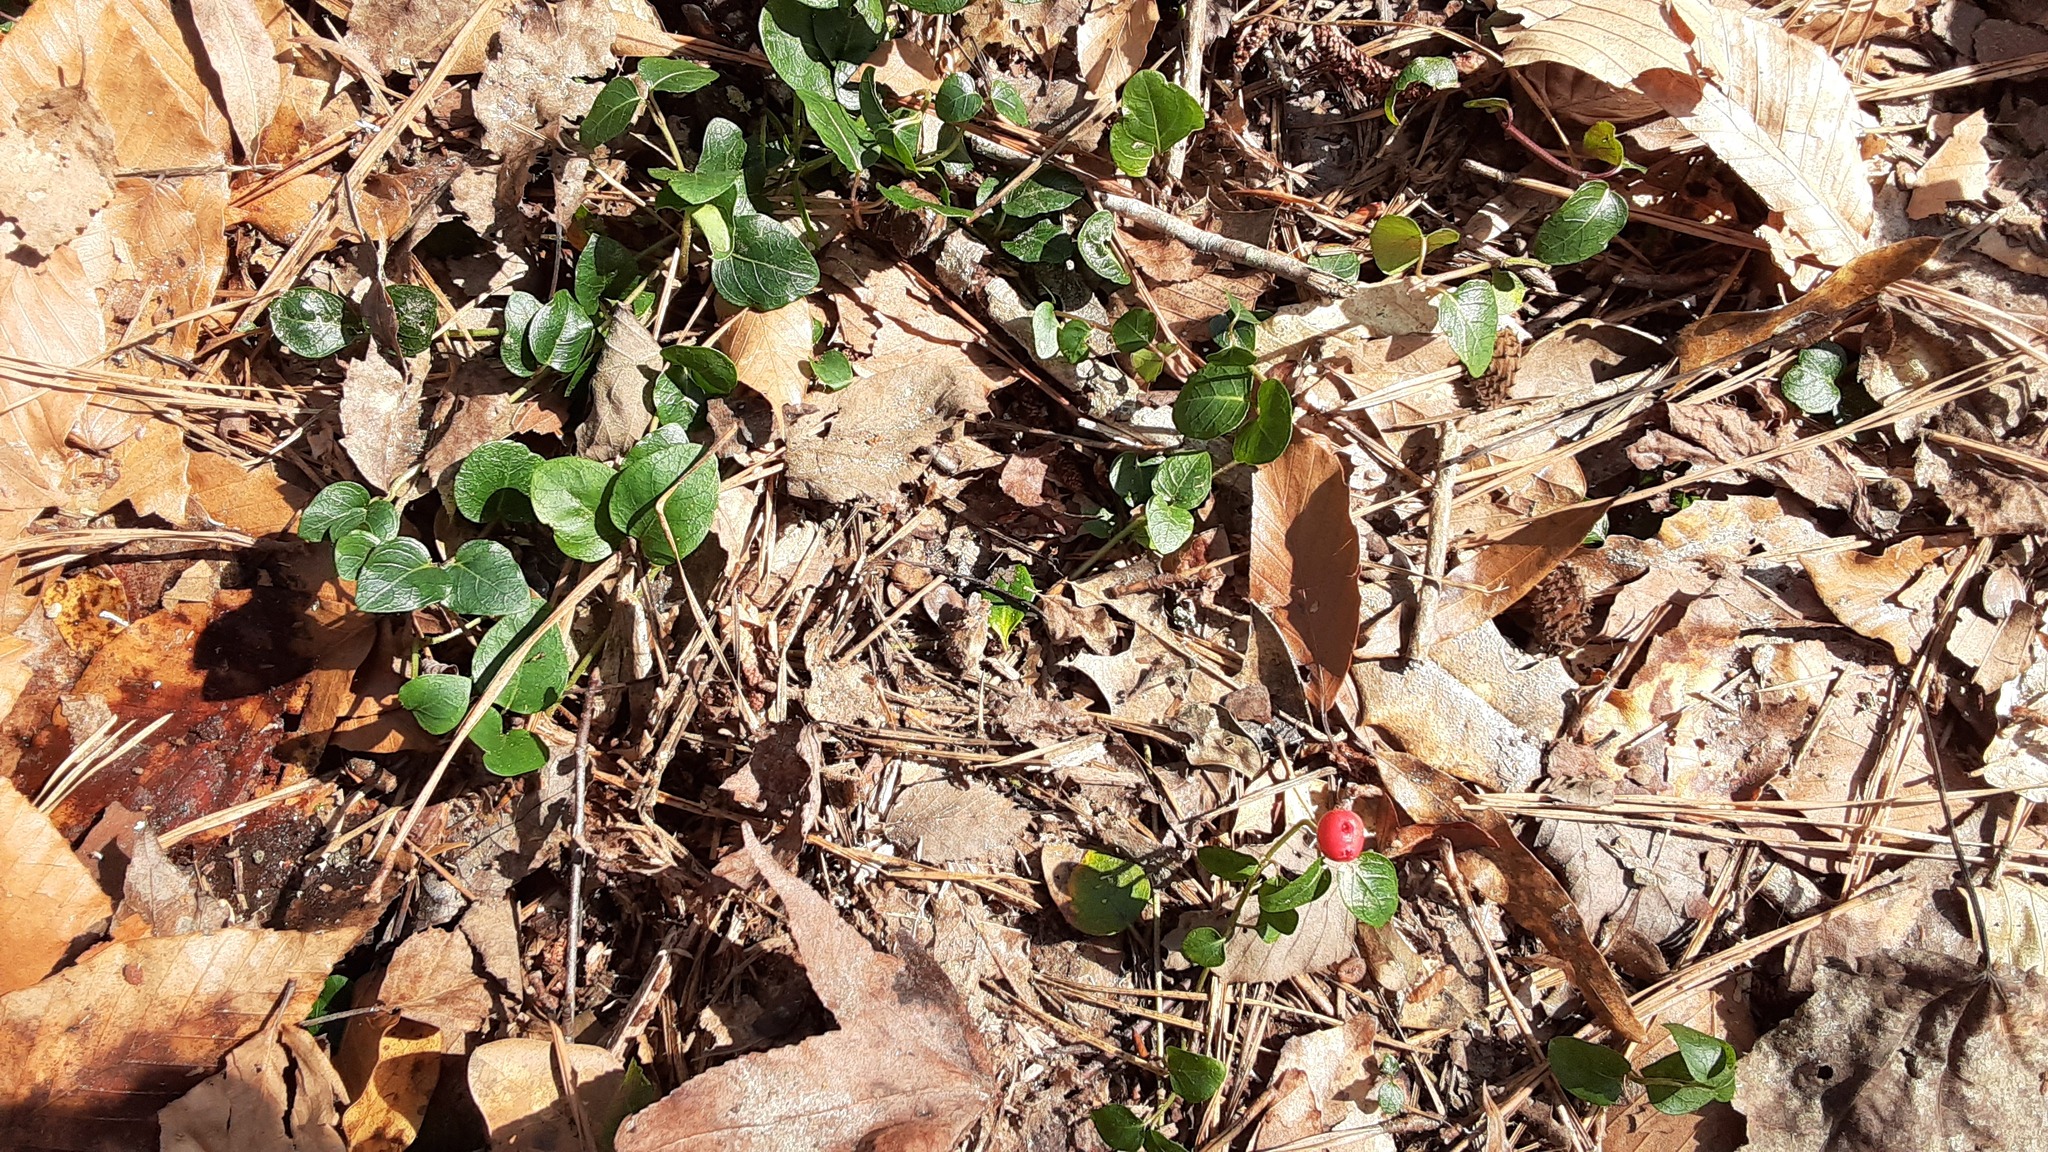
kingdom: Plantae
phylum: Tracheophyta
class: Magnoliopsida
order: Gentianales
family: Rubiaceae
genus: Mitchella
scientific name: Mitchella repens
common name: Partridge-berry
